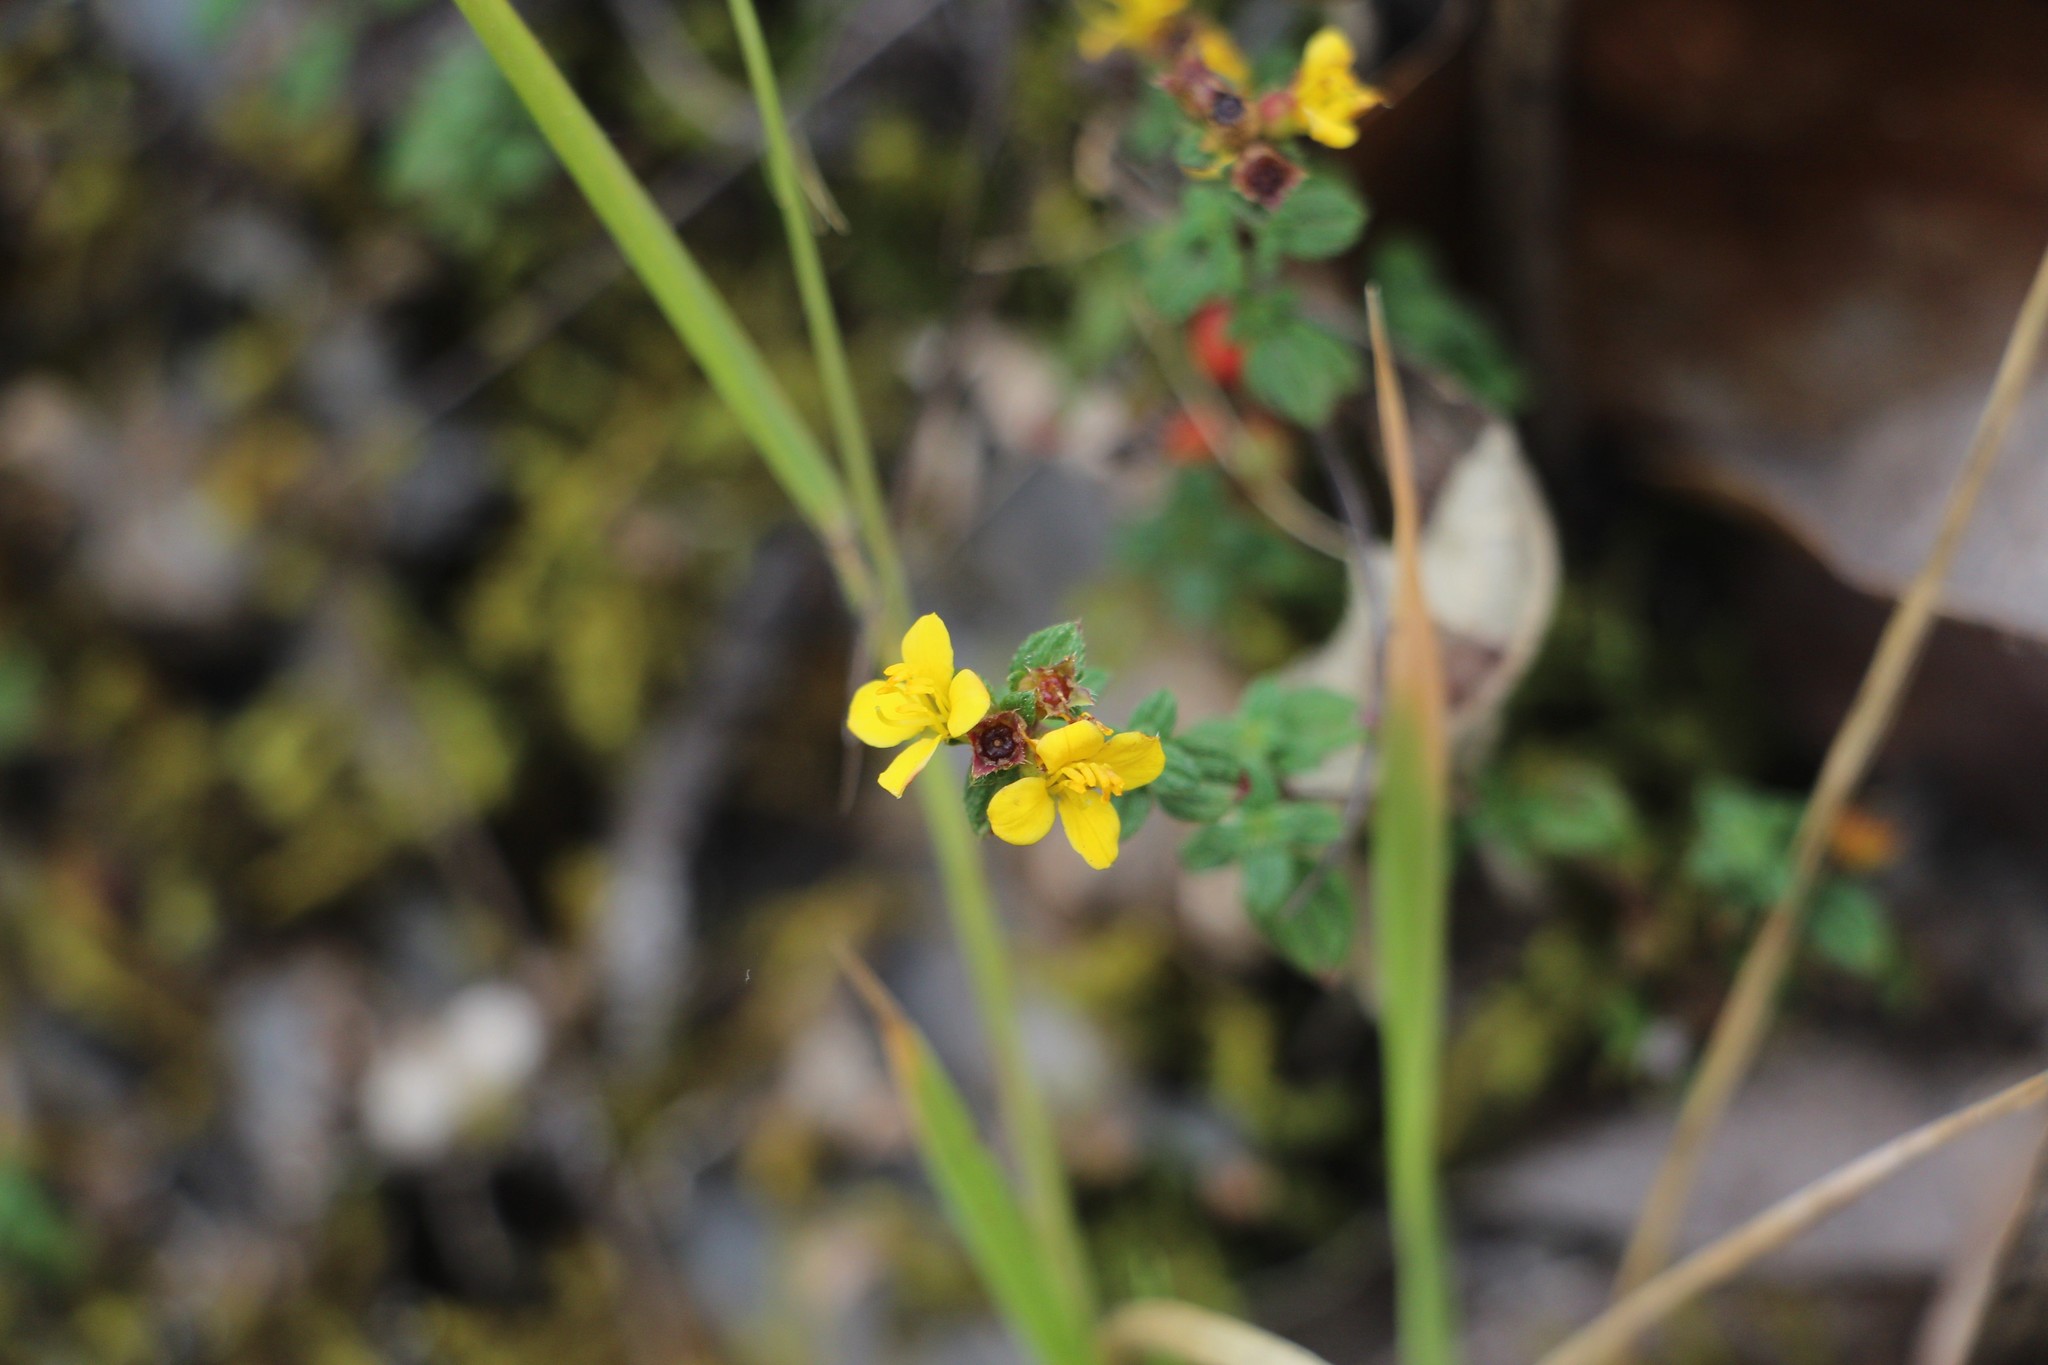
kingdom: Plantae
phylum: Tracheophyta
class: Magnoliopsida
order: Myrtales
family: Melastomataceae
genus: Chaetolepis
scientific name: Chaetolepis microphylla
